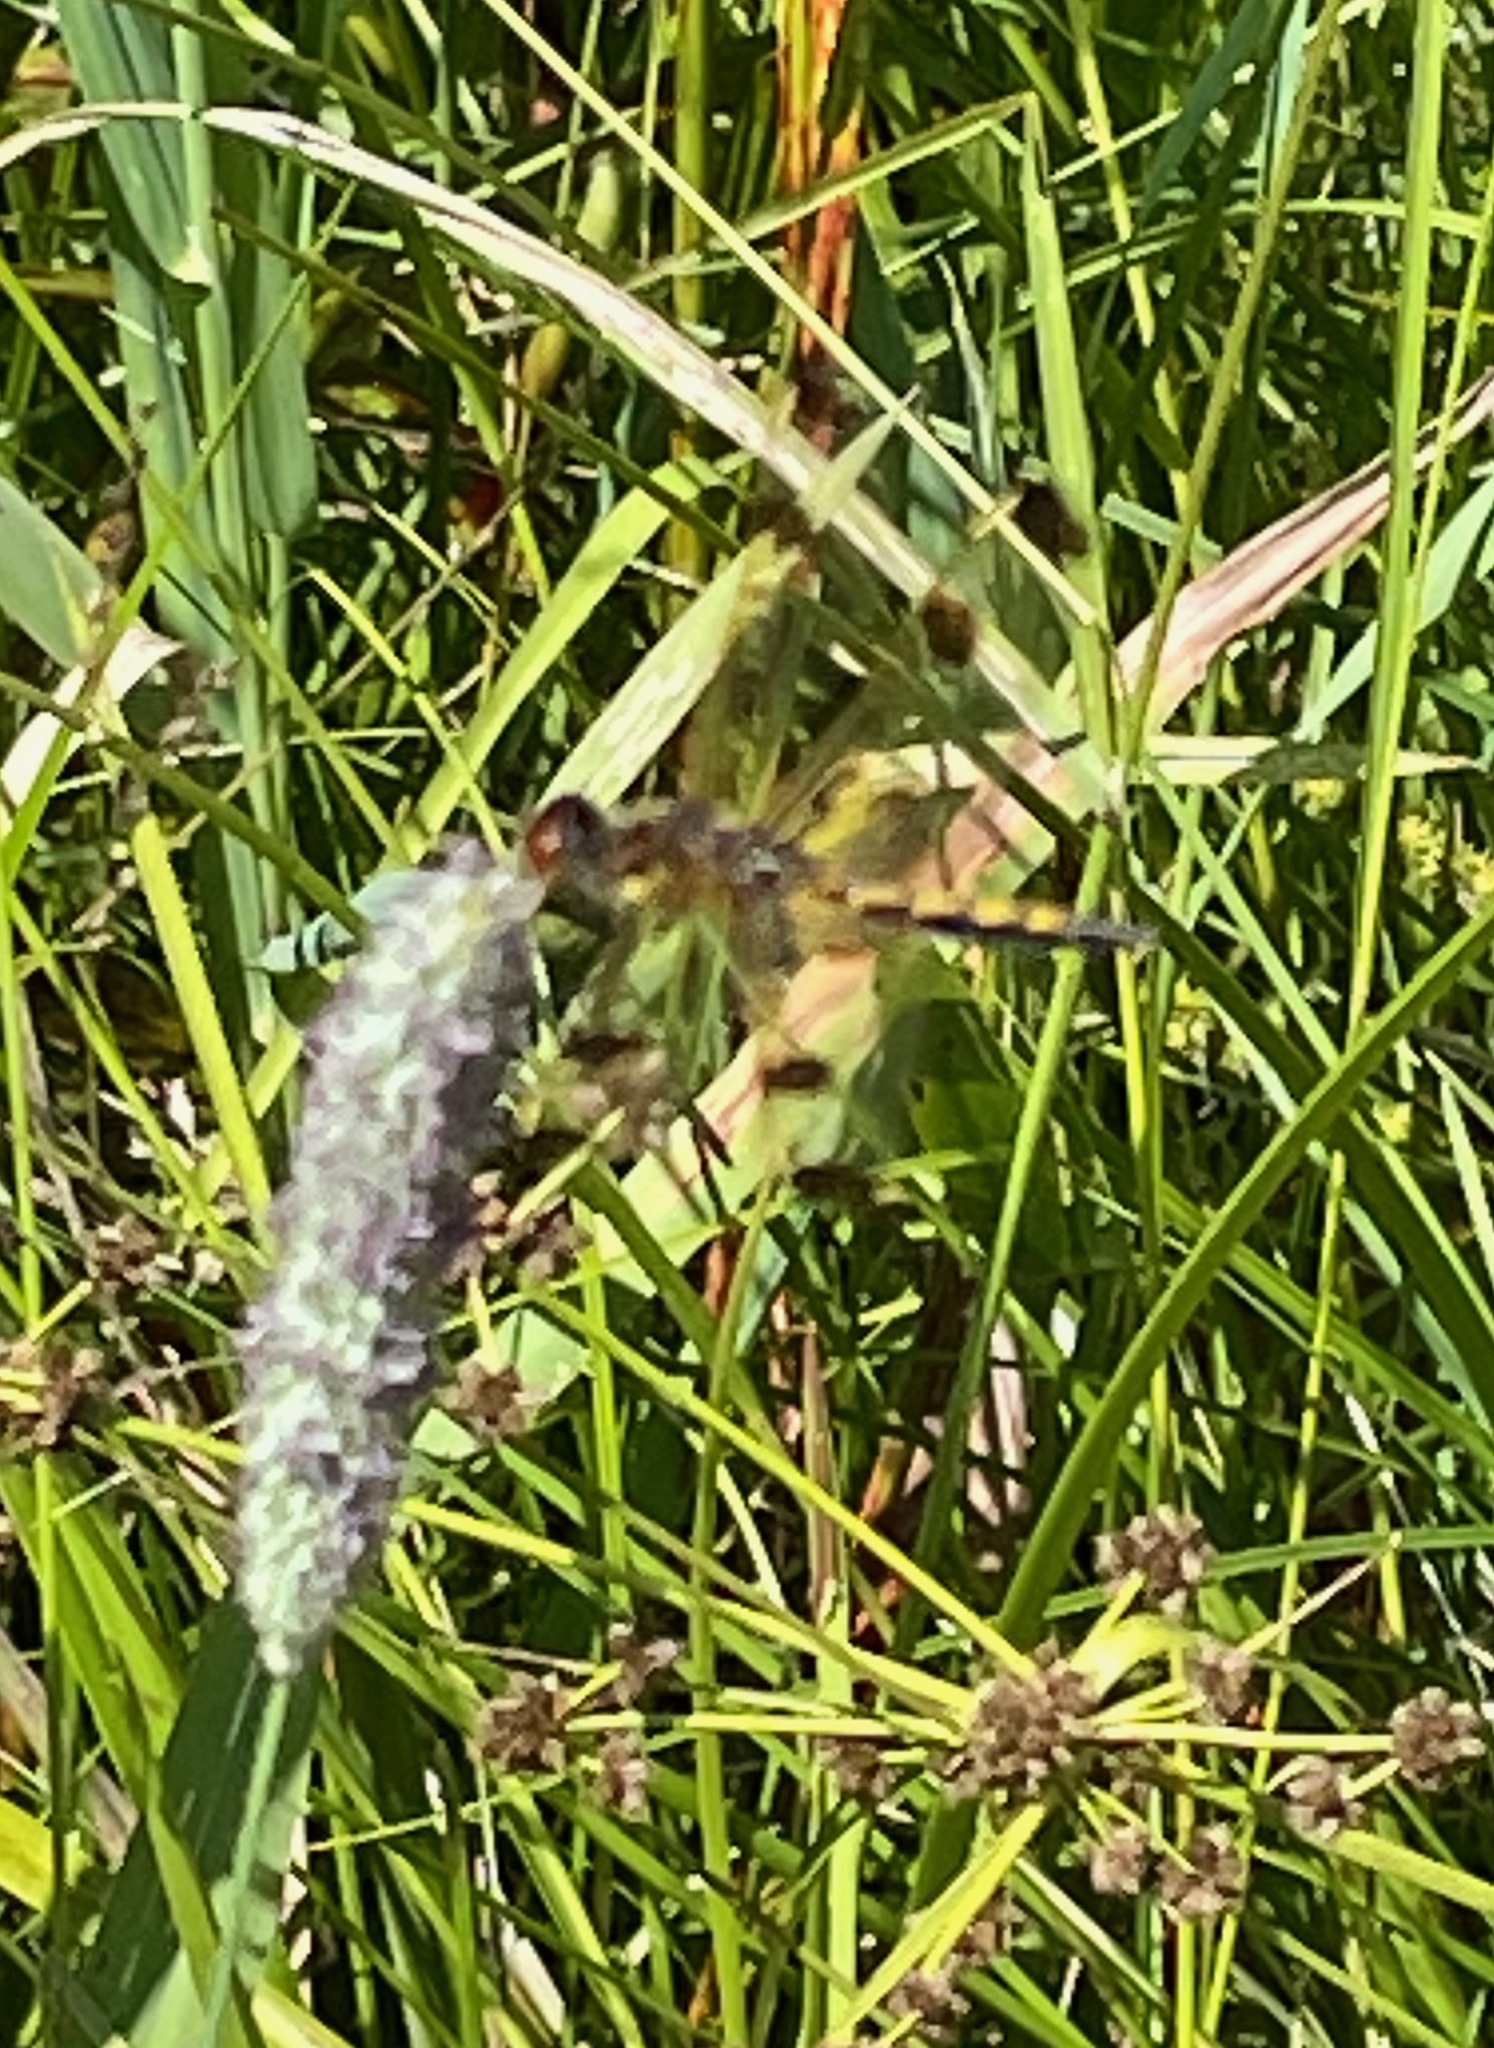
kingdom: Animalia
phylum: Arthropoda
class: Insecta
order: Odonata
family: Libellulidae
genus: Celithemis
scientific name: Celithemis elisa
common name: Calico pennant
